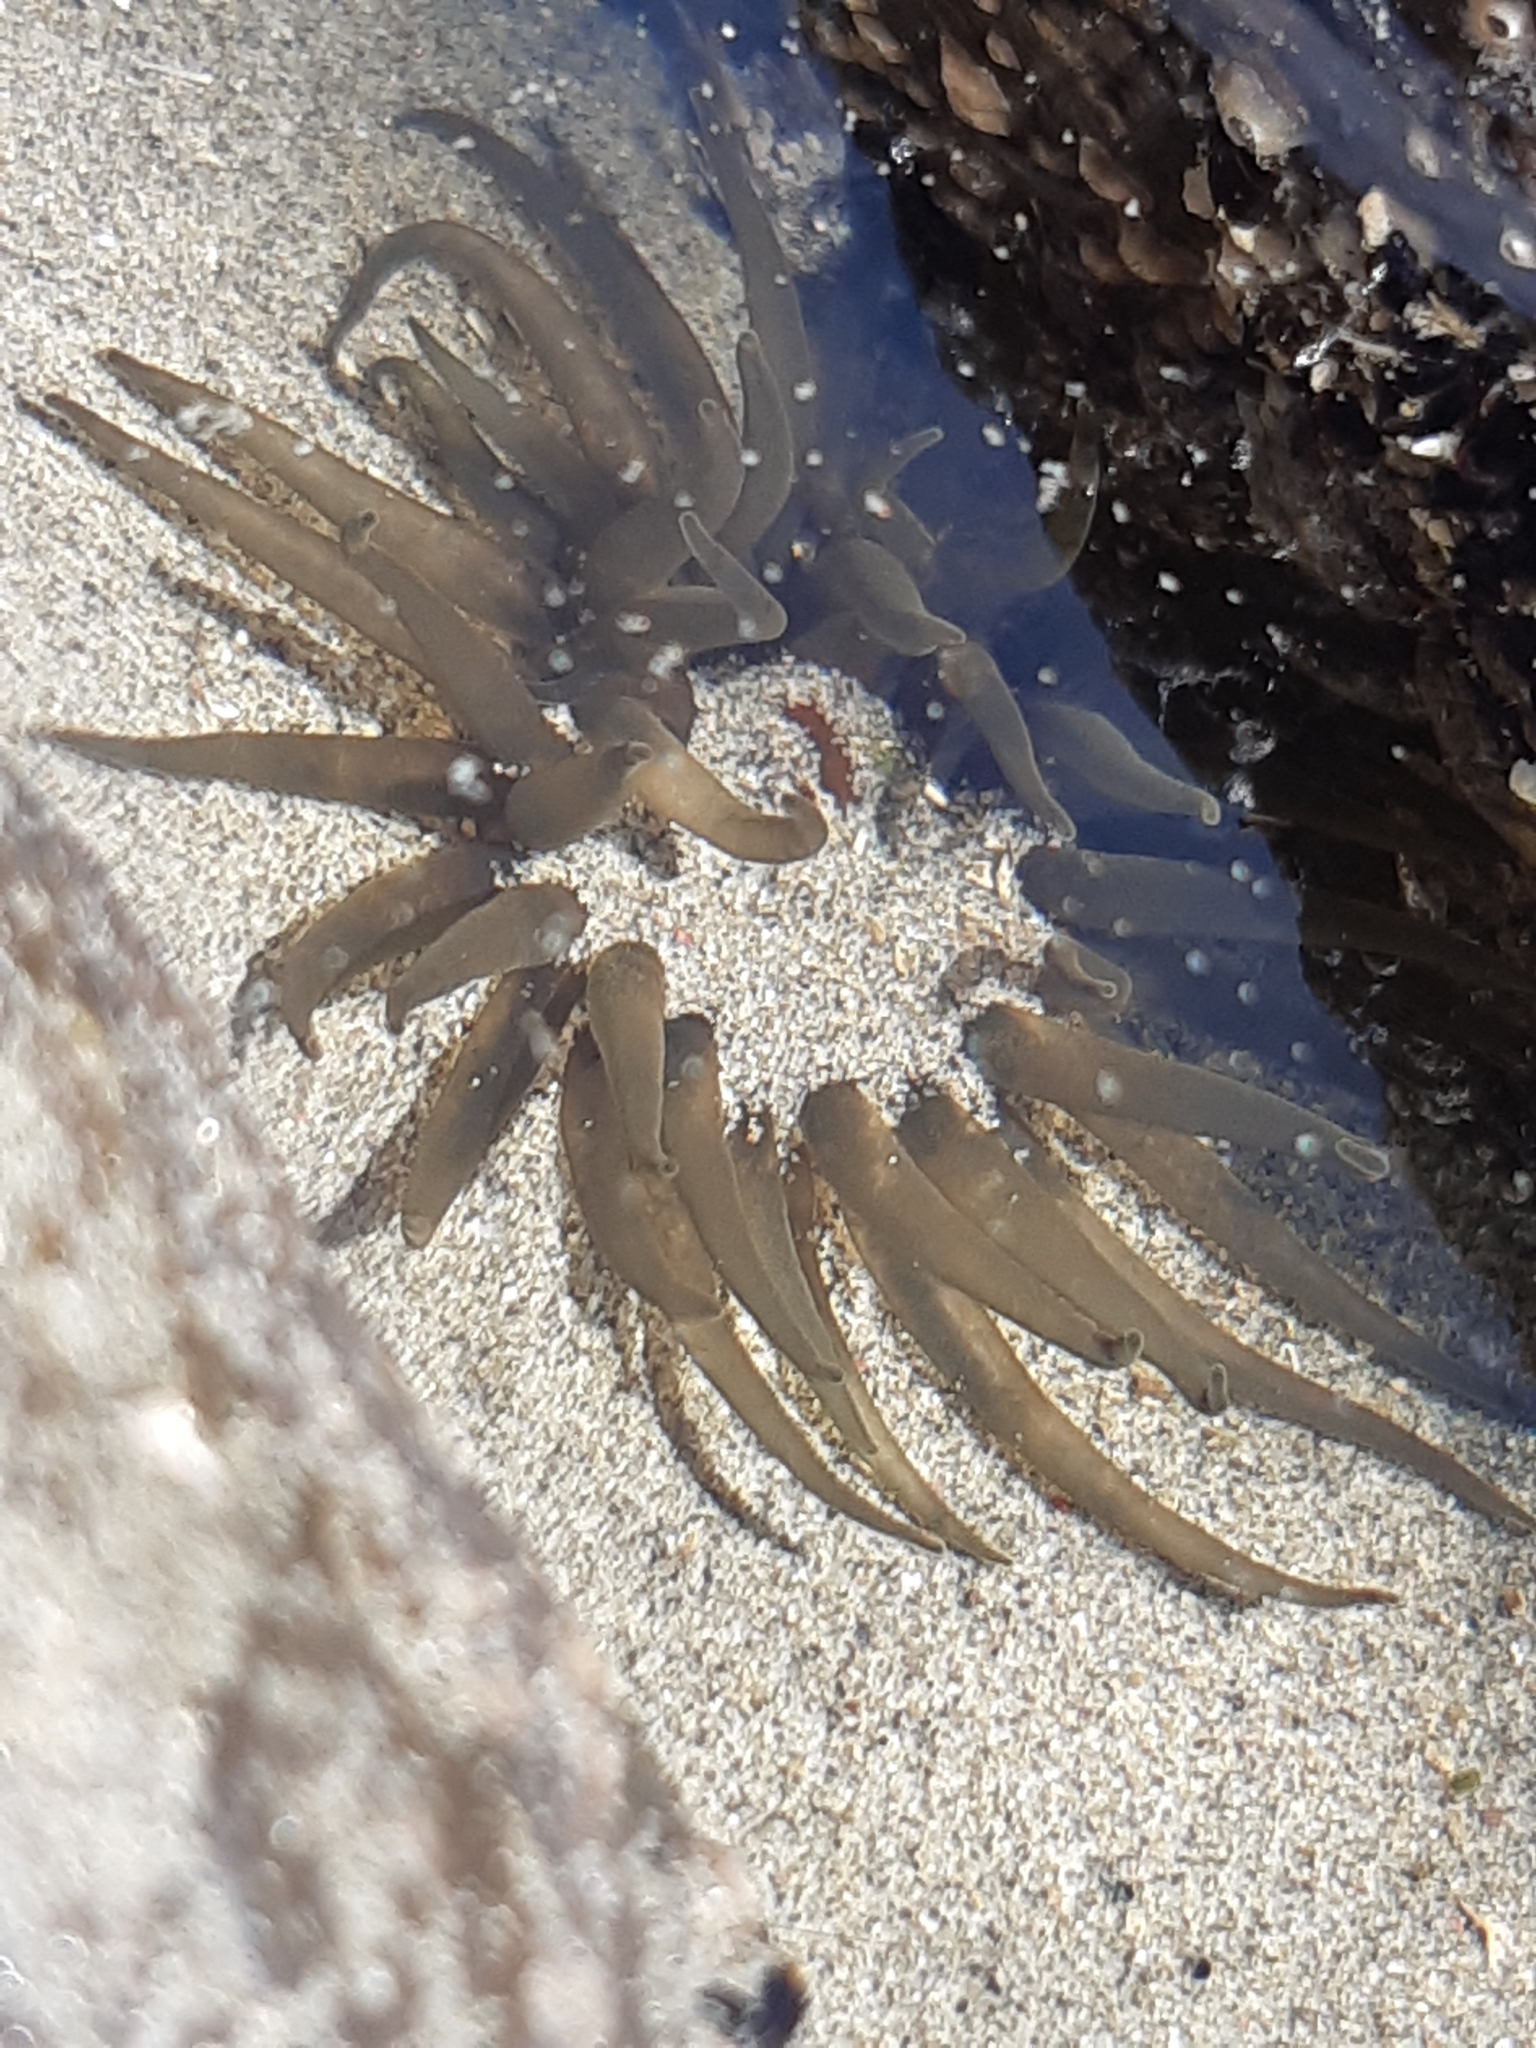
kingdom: Animalia
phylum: Cnidaria
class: Anthozoa
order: Actiniaria
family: Actiniidae
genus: Isactinia
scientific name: Isactinia olivacea
